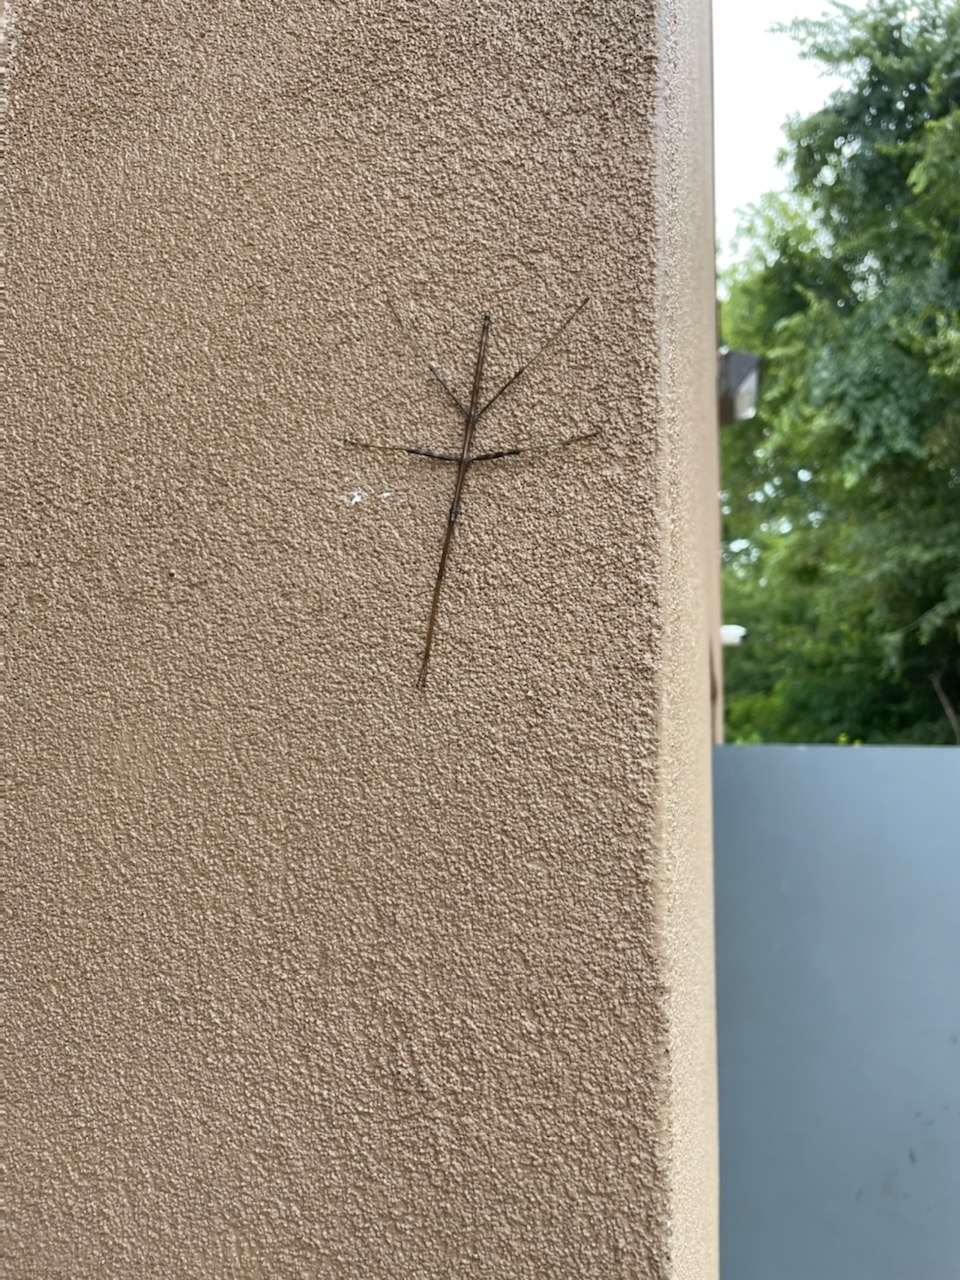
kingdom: Animalia
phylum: Arthropoda
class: Insecta
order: Phasmida
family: Diapheromeridae
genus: Diapheromera
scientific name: Diapheromera femorata
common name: Common american walkingstick
